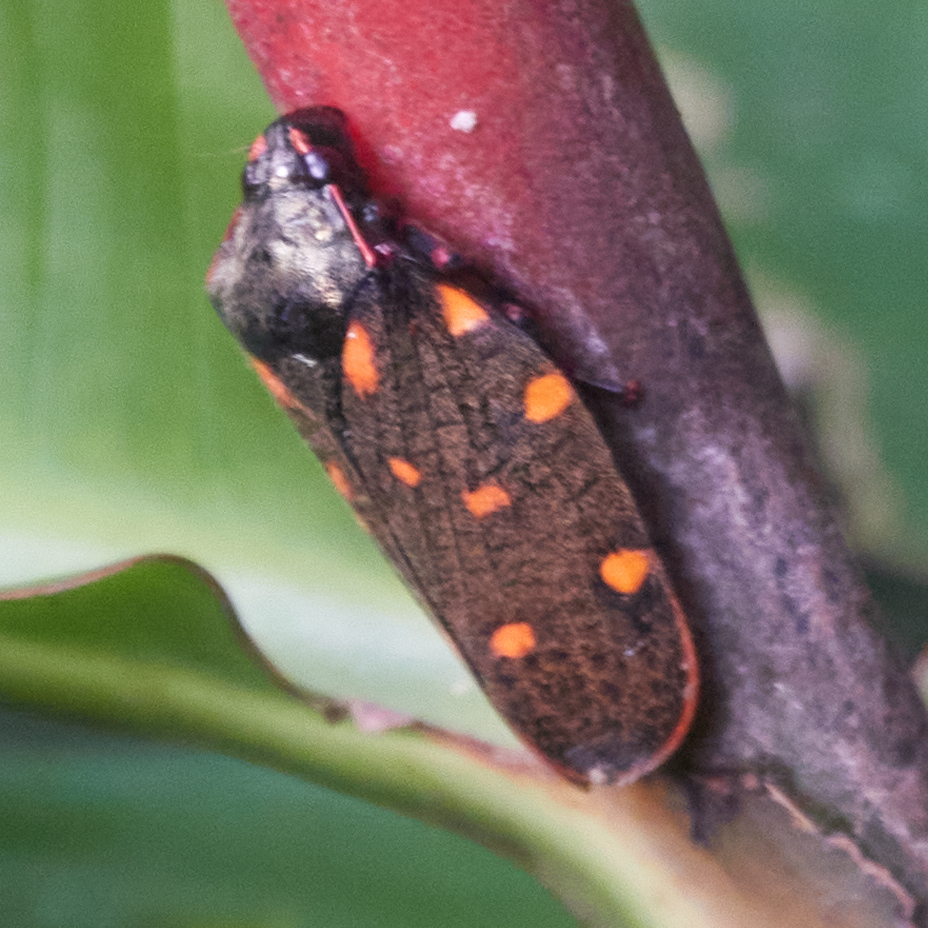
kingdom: Animalia
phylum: Arthropoda
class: Insecta
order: Hemiptera
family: Cercopidae
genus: Mahanarva
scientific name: Mahanarva costaricensis
